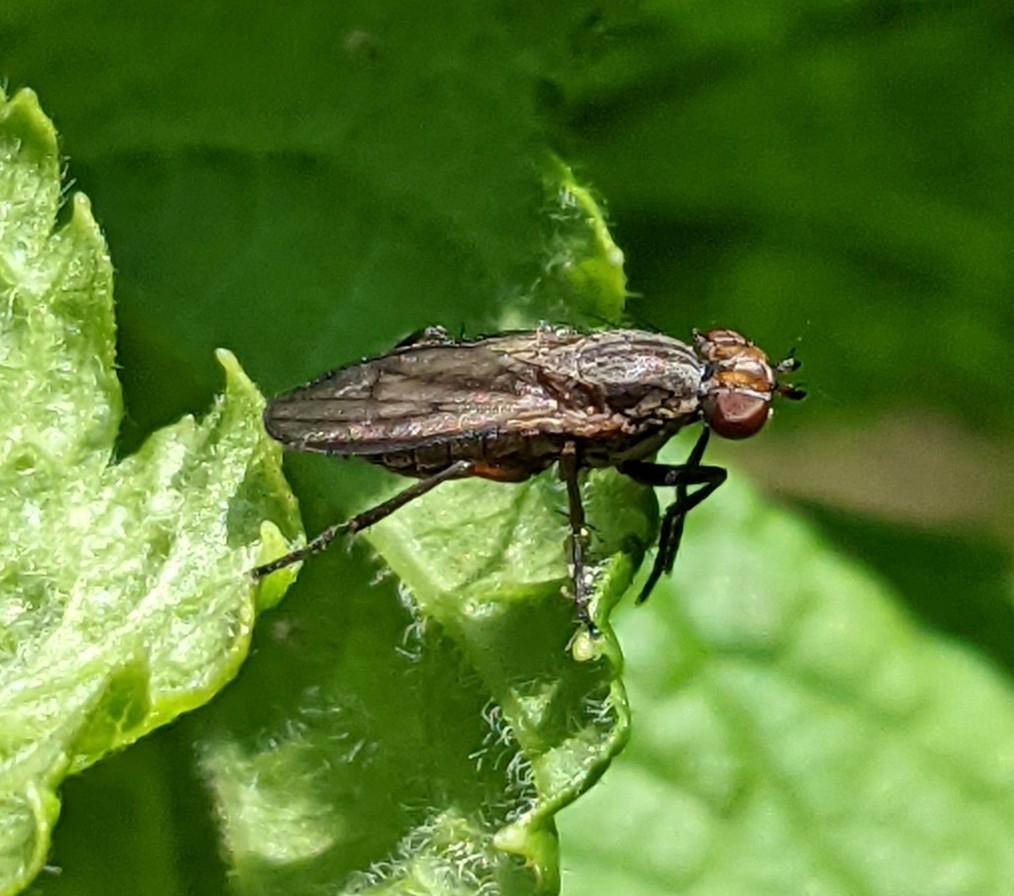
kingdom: Animalia
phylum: Arthropoda
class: Insecta
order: Diptera
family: Sciomyzidae
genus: Pherbellia
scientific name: Pherbellia cinerella
